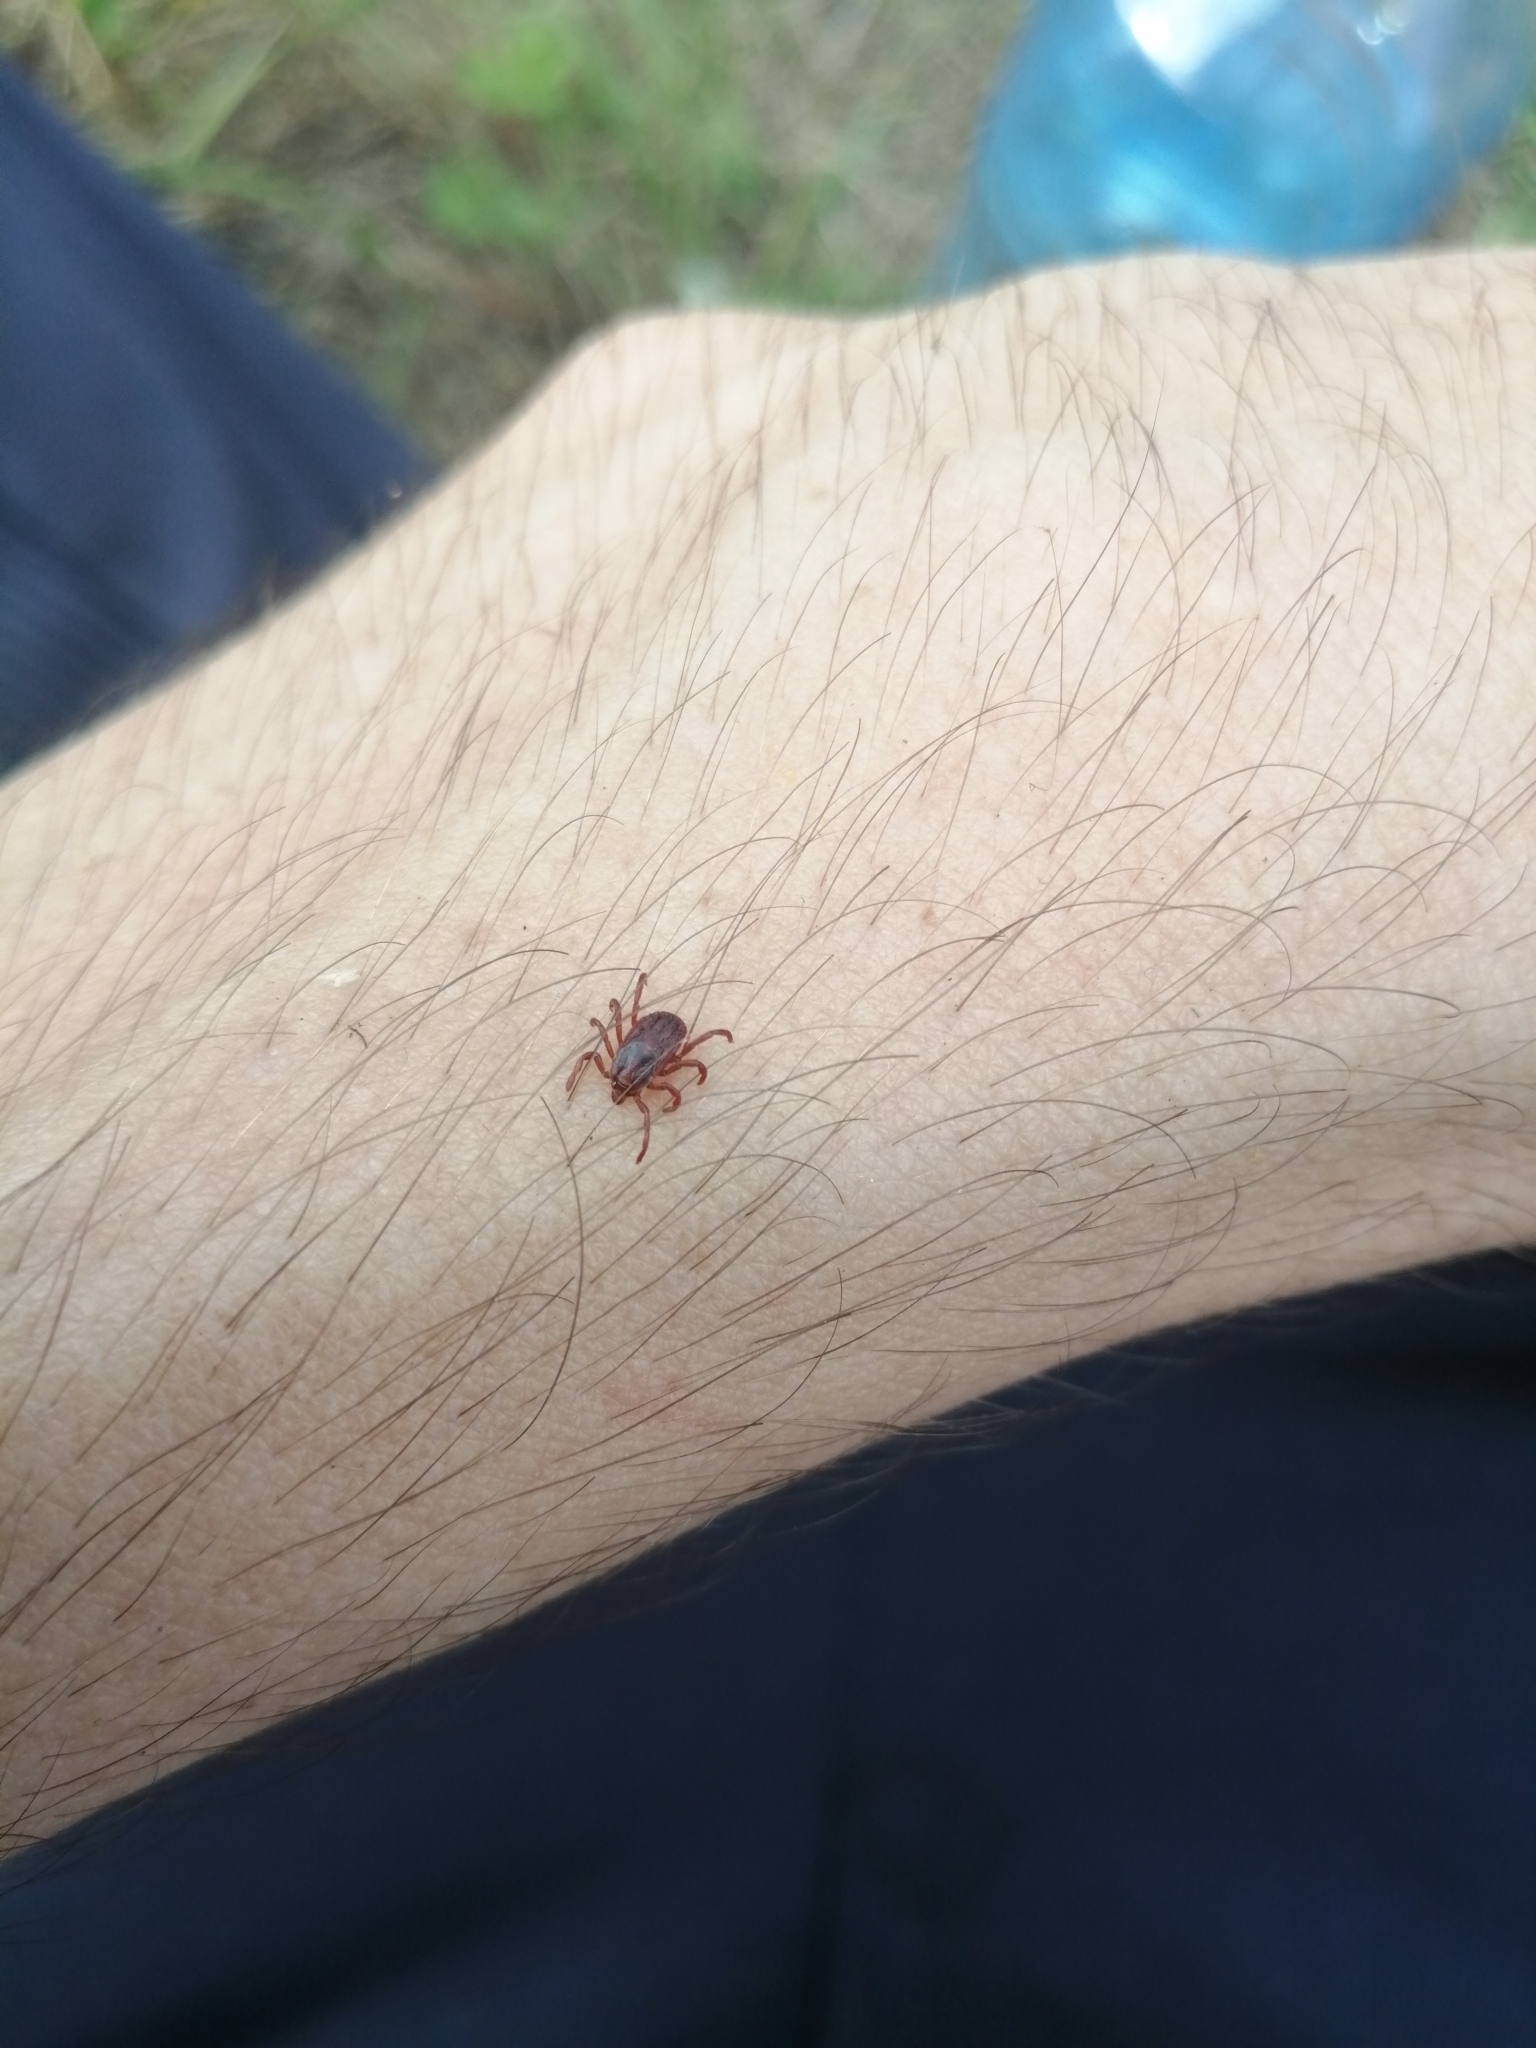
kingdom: Animalia
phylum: Arthropoda
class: Arachnida
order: Ixodida
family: Ixodidae
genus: Rhipicephalus
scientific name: Rhipicephalus sanguineus
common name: Brown dog tick
